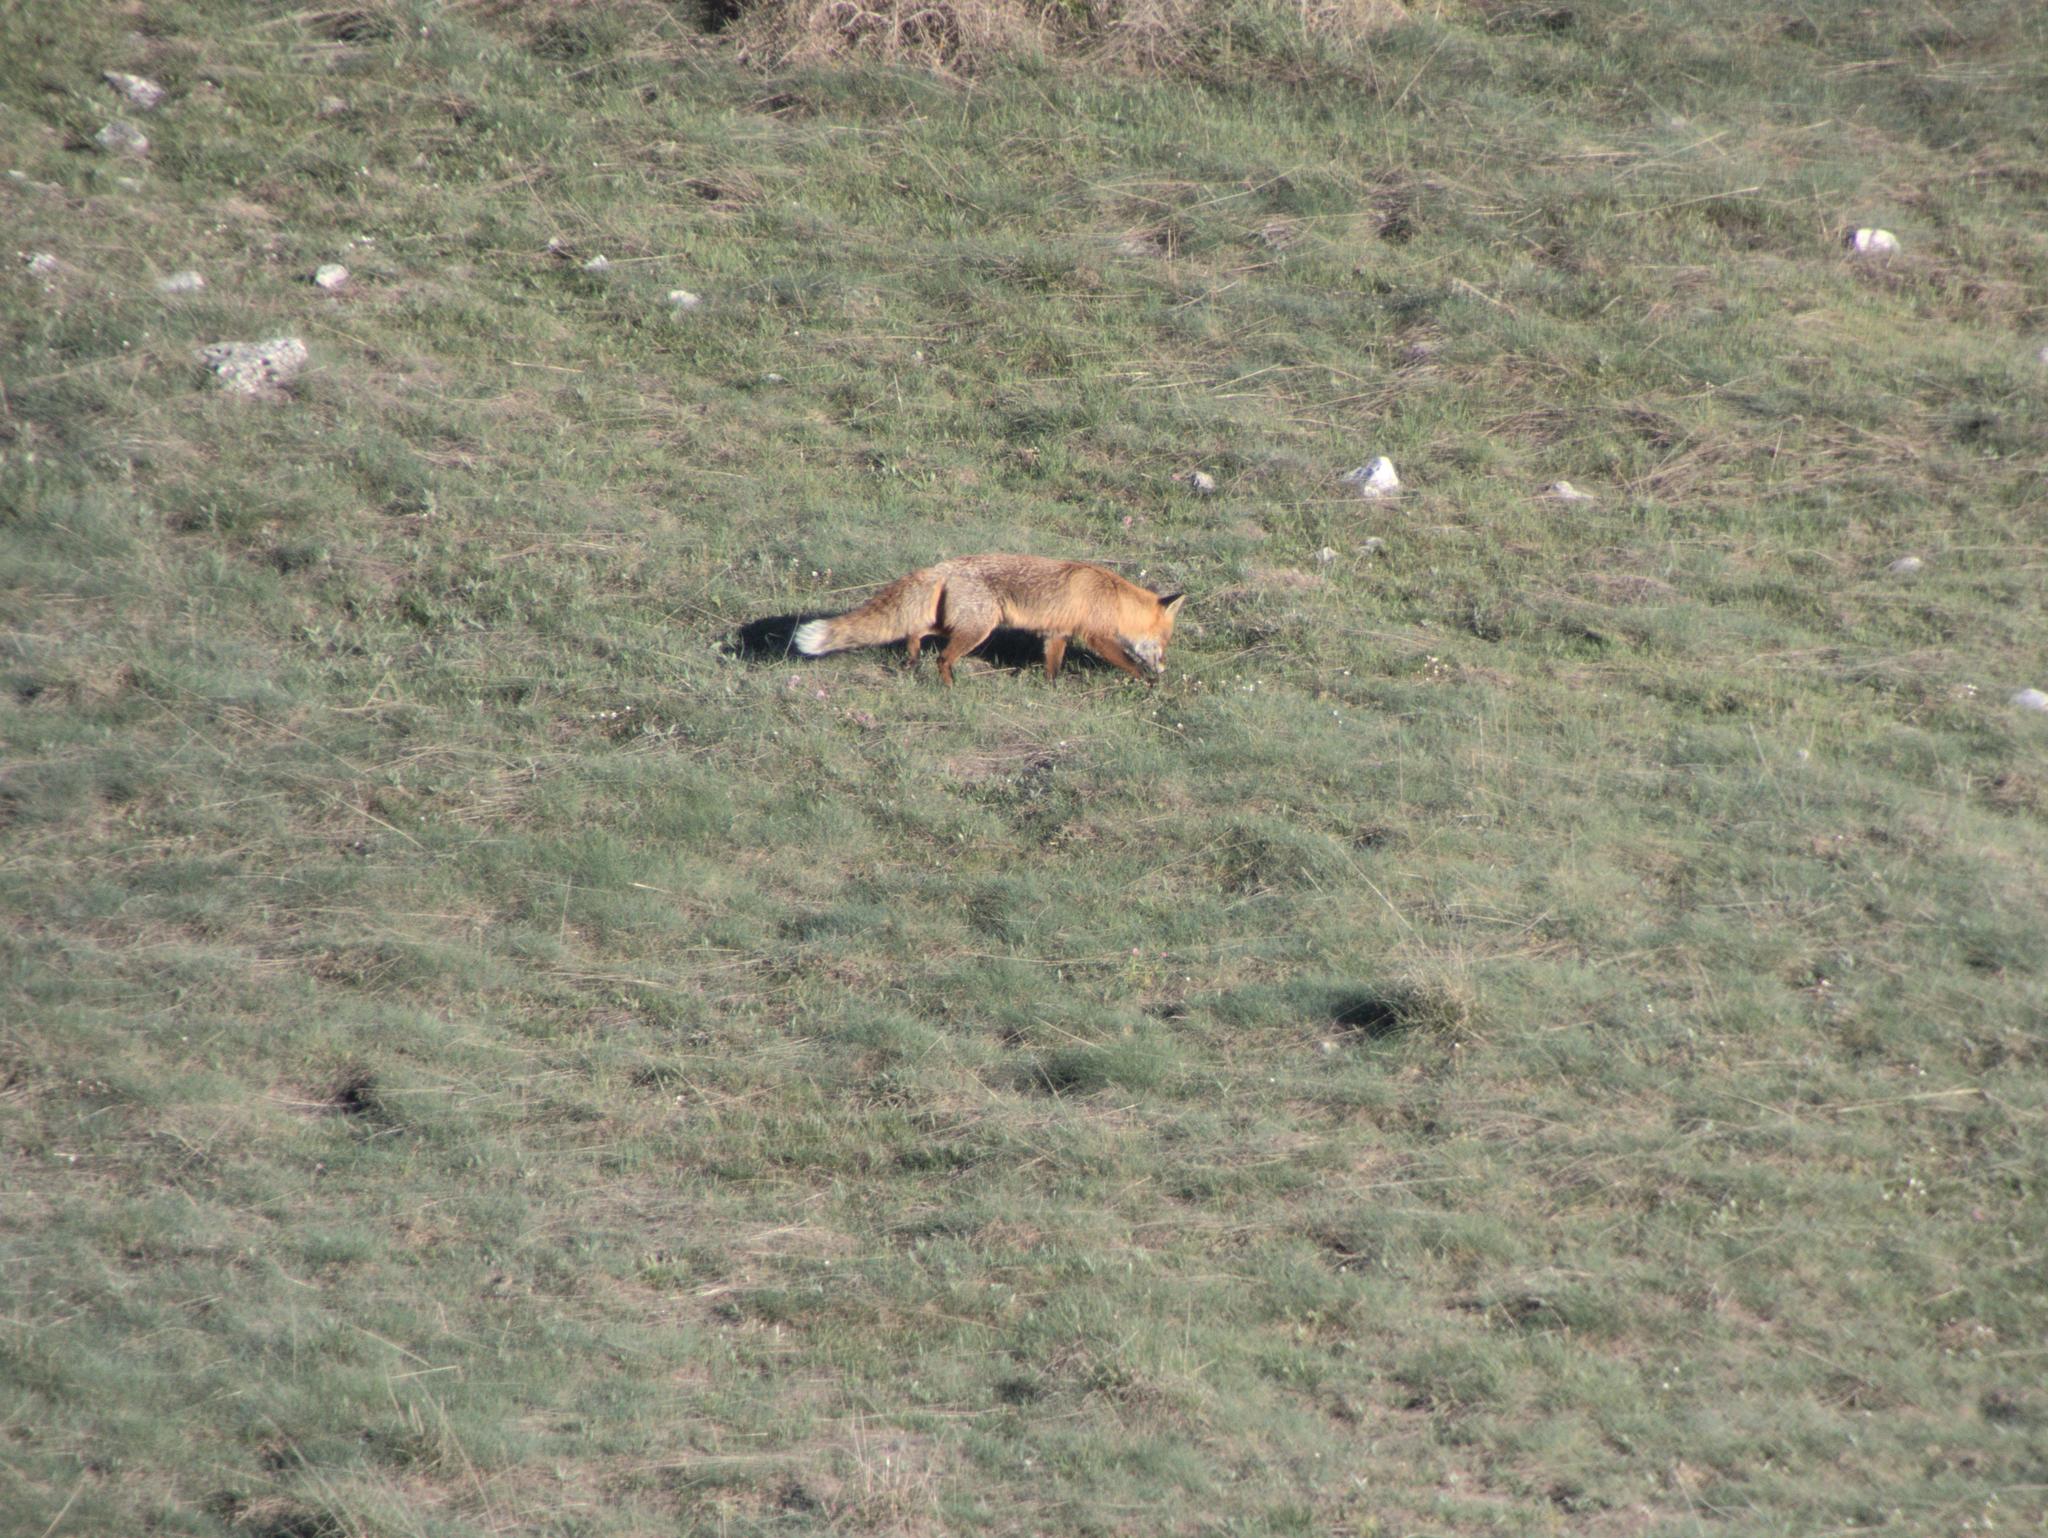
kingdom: Animalia
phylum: Chordata
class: Mammalia
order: Carnivora
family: Canidae
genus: Vulpes
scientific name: Vulpes vulpes
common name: Red fox
